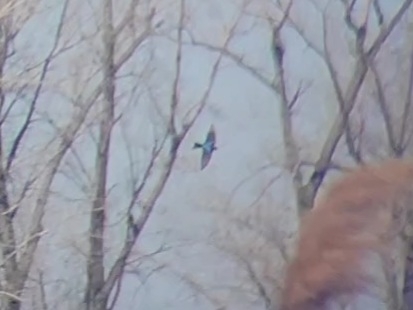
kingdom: Animalia
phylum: Chordata
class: Aves
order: Passeriformes
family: Hirundinidae
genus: Tachycineta
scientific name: Tachycineta bicolor
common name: Tree swallow
